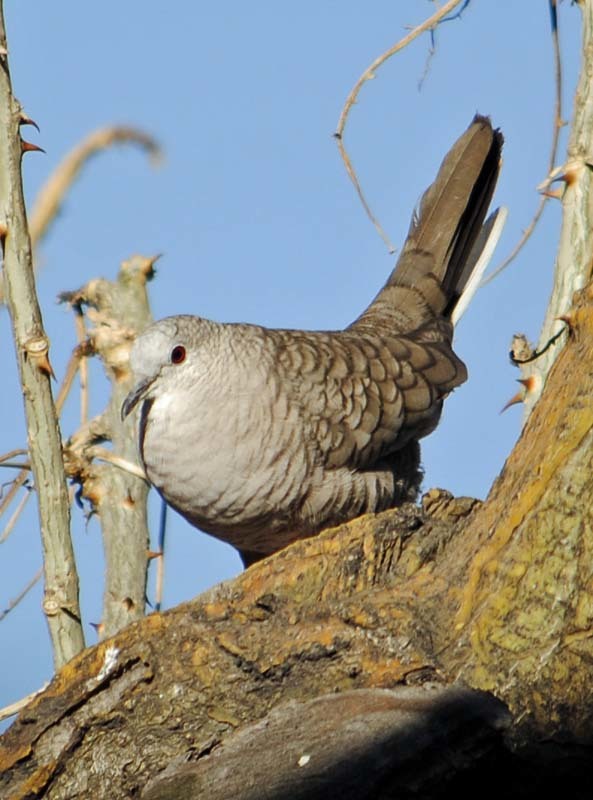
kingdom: Animalia
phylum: Chordata
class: Aves
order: Columbiformes
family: Columbidae
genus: Columbina
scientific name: Columbina inca
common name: Inca dove
